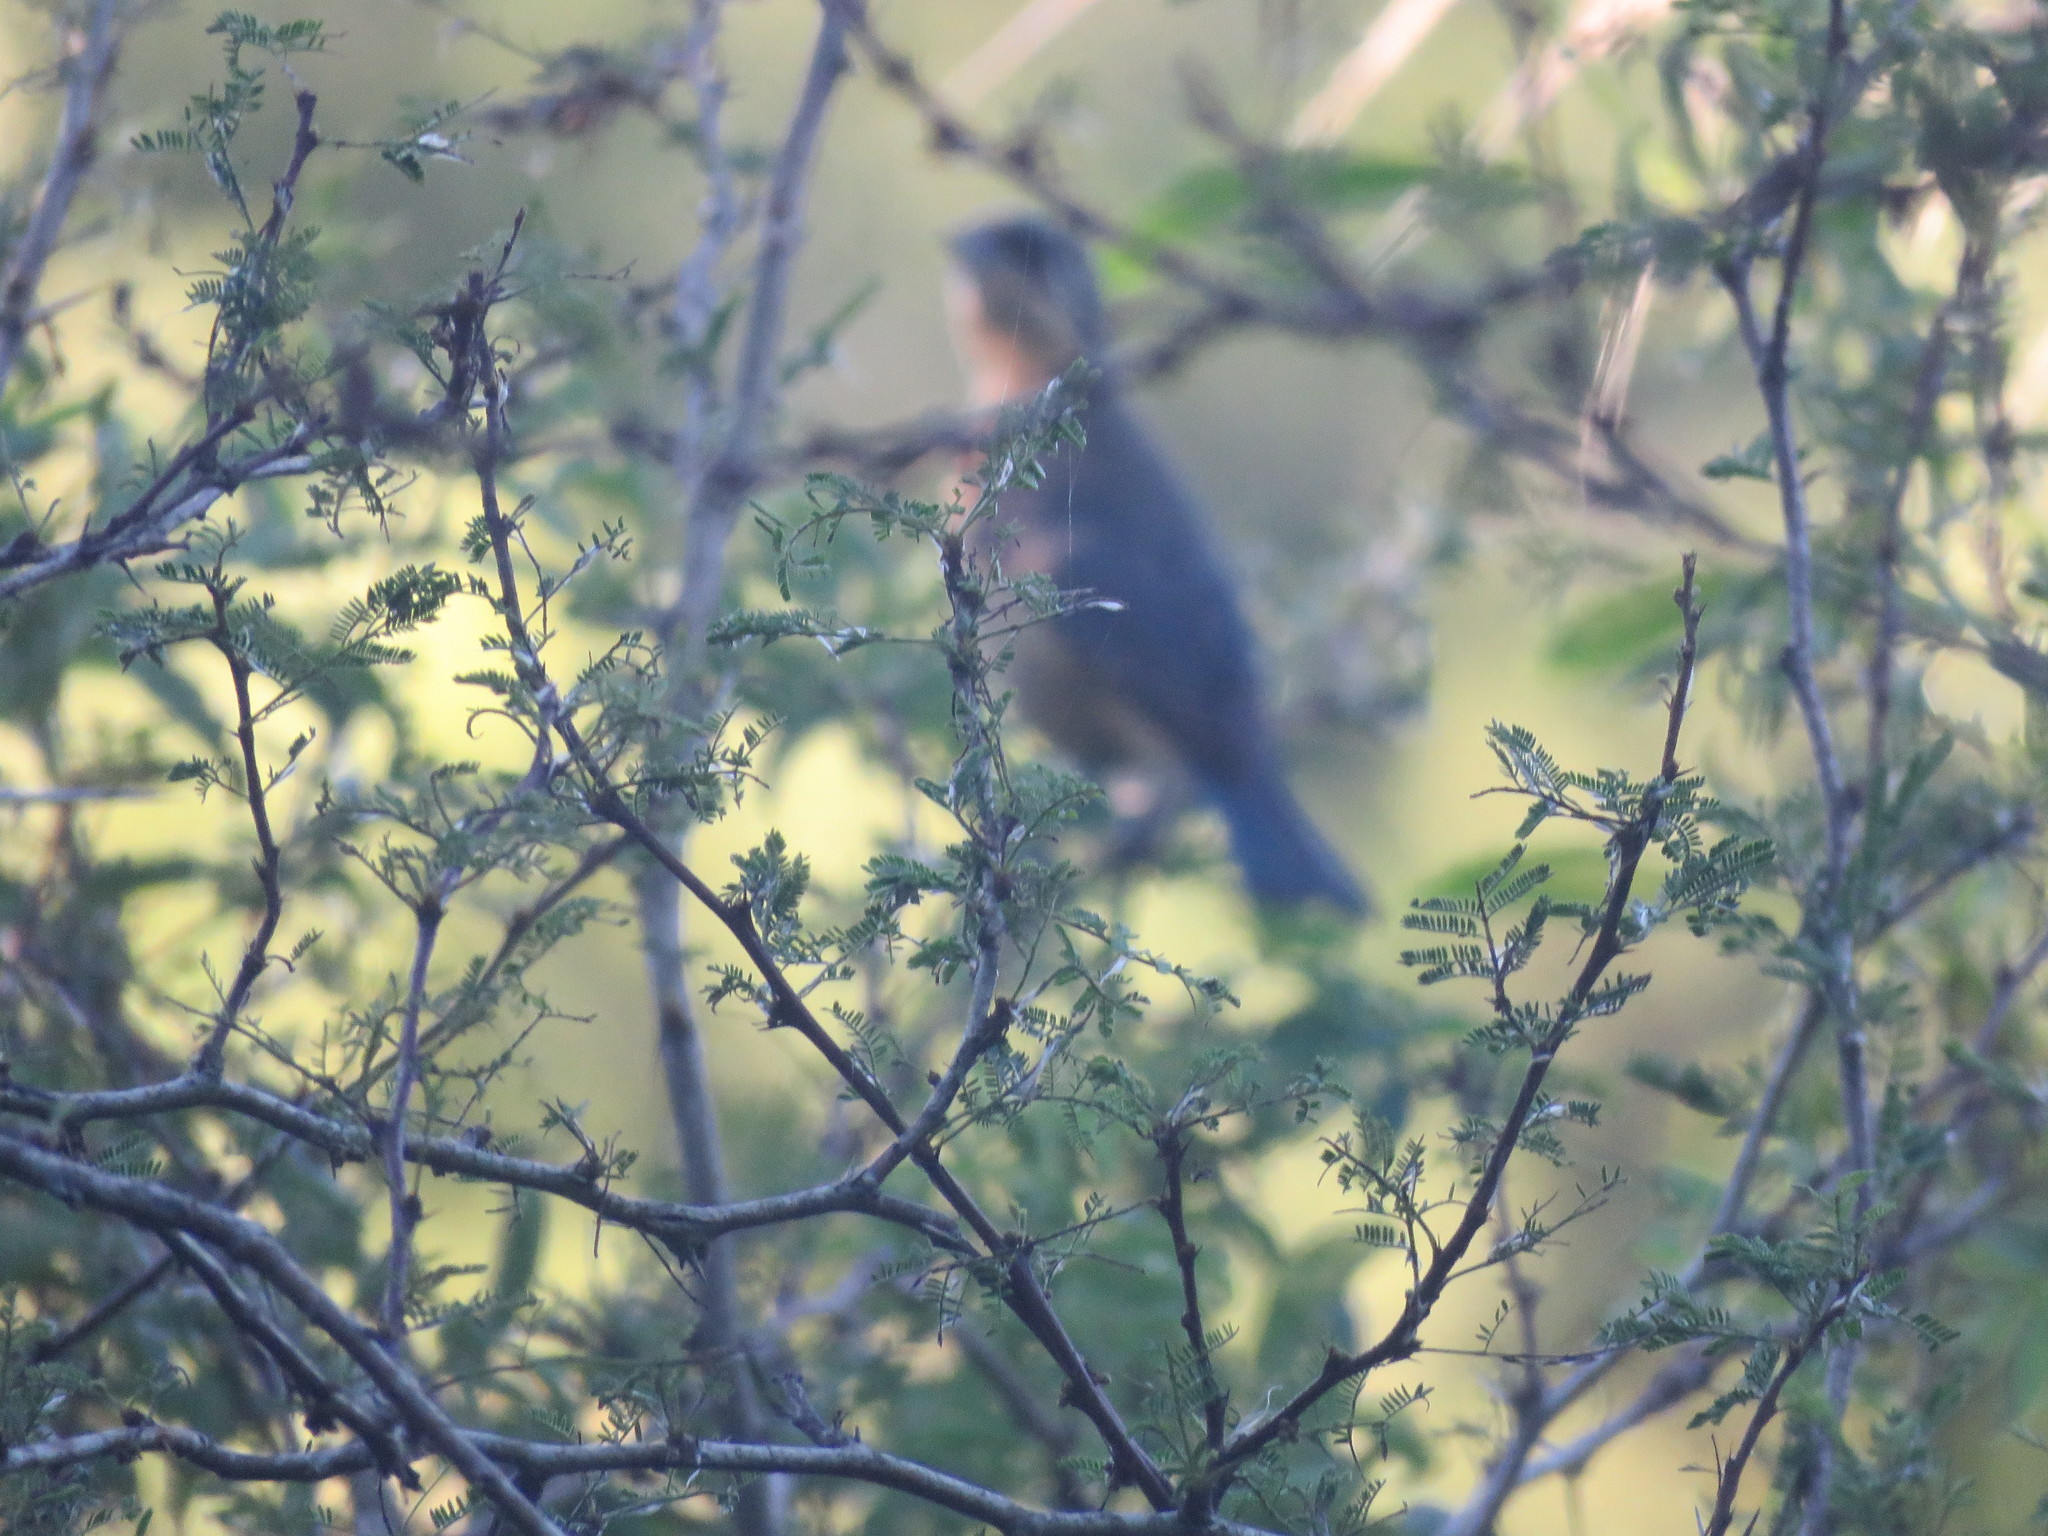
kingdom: Animalia
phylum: Chordata
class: Aves
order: Passeriformes
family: Thraupidae
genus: Pipraeidea
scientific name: Pipraeidea melanonota
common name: Fawn-breasted tanager
